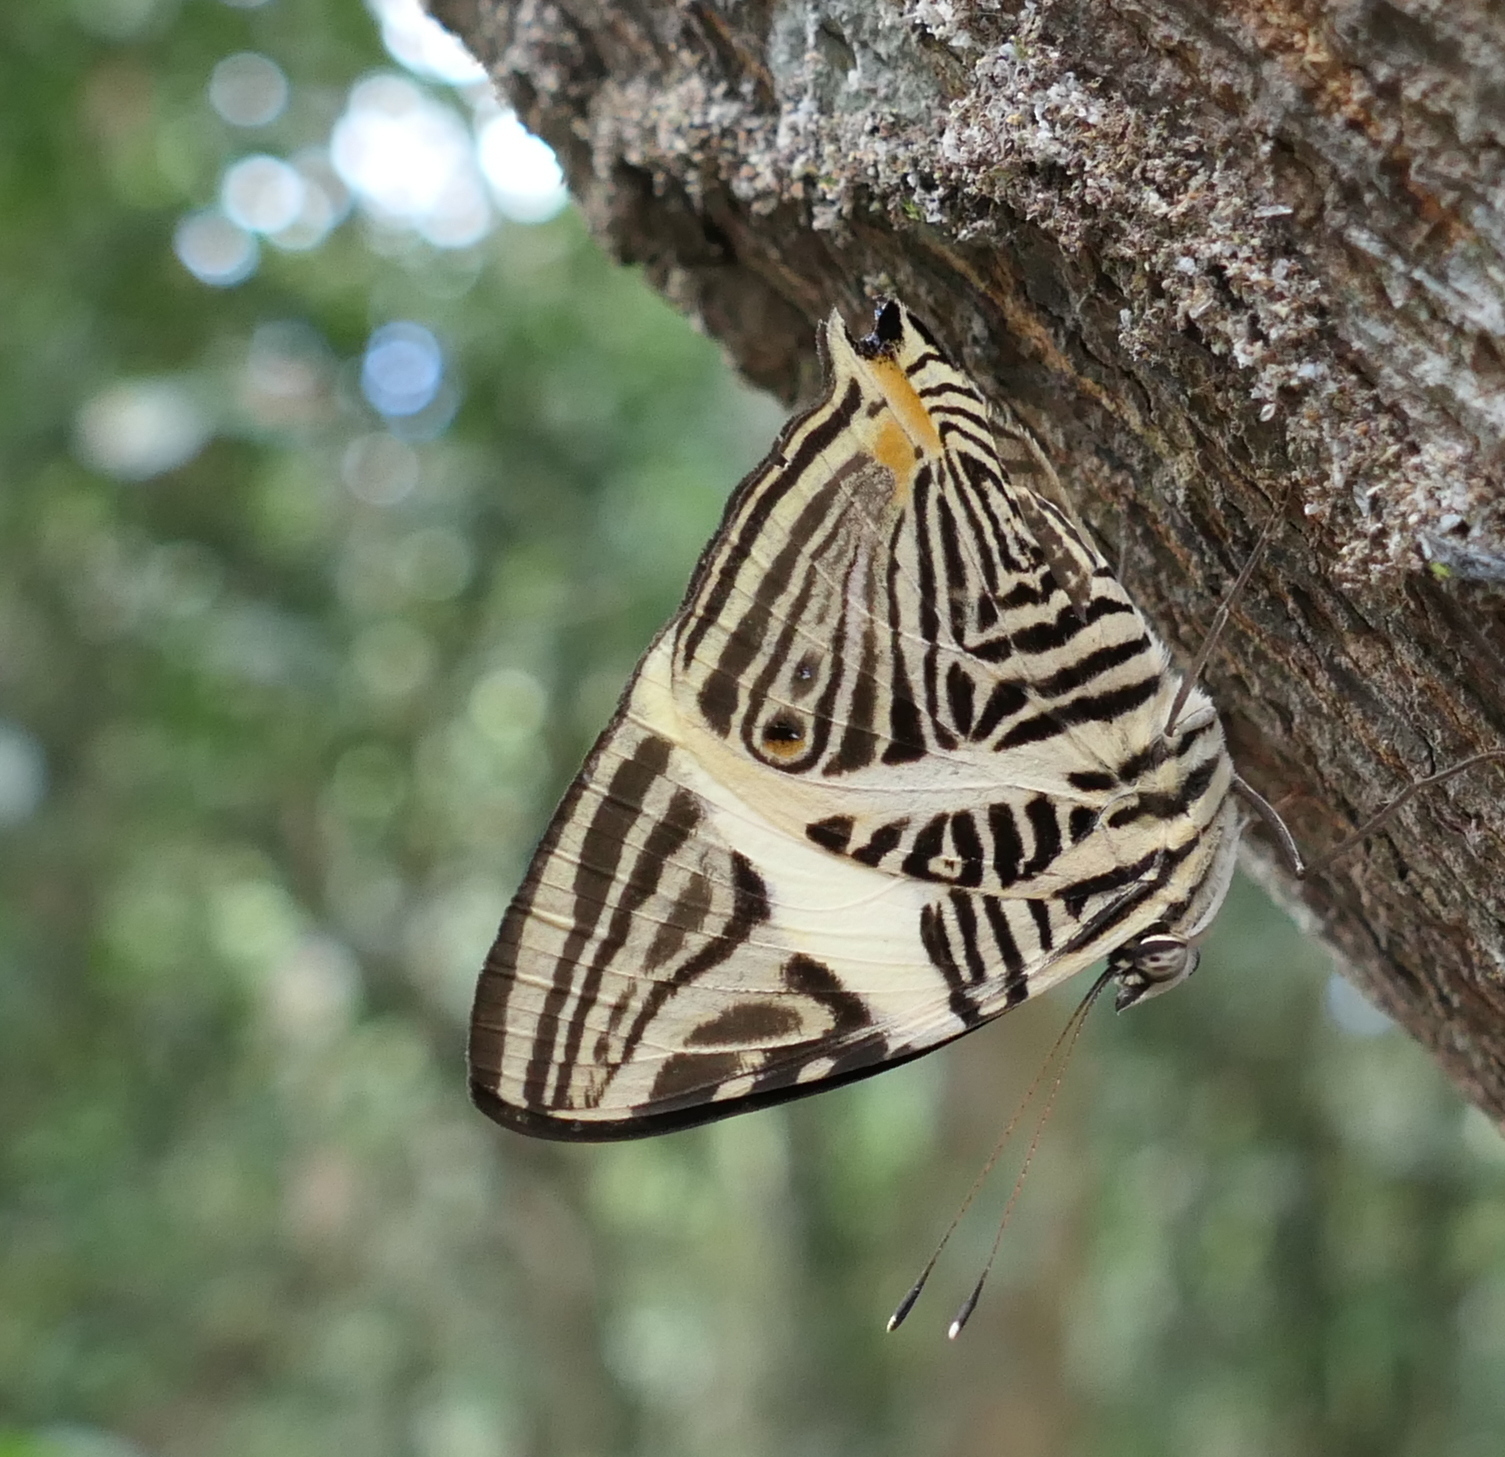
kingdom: Animalia
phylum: Arthropoda
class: Insecta
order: Lepidoptera
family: Nymphalidae
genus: Colobura
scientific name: Colobura dirce
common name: Dirce beauty
